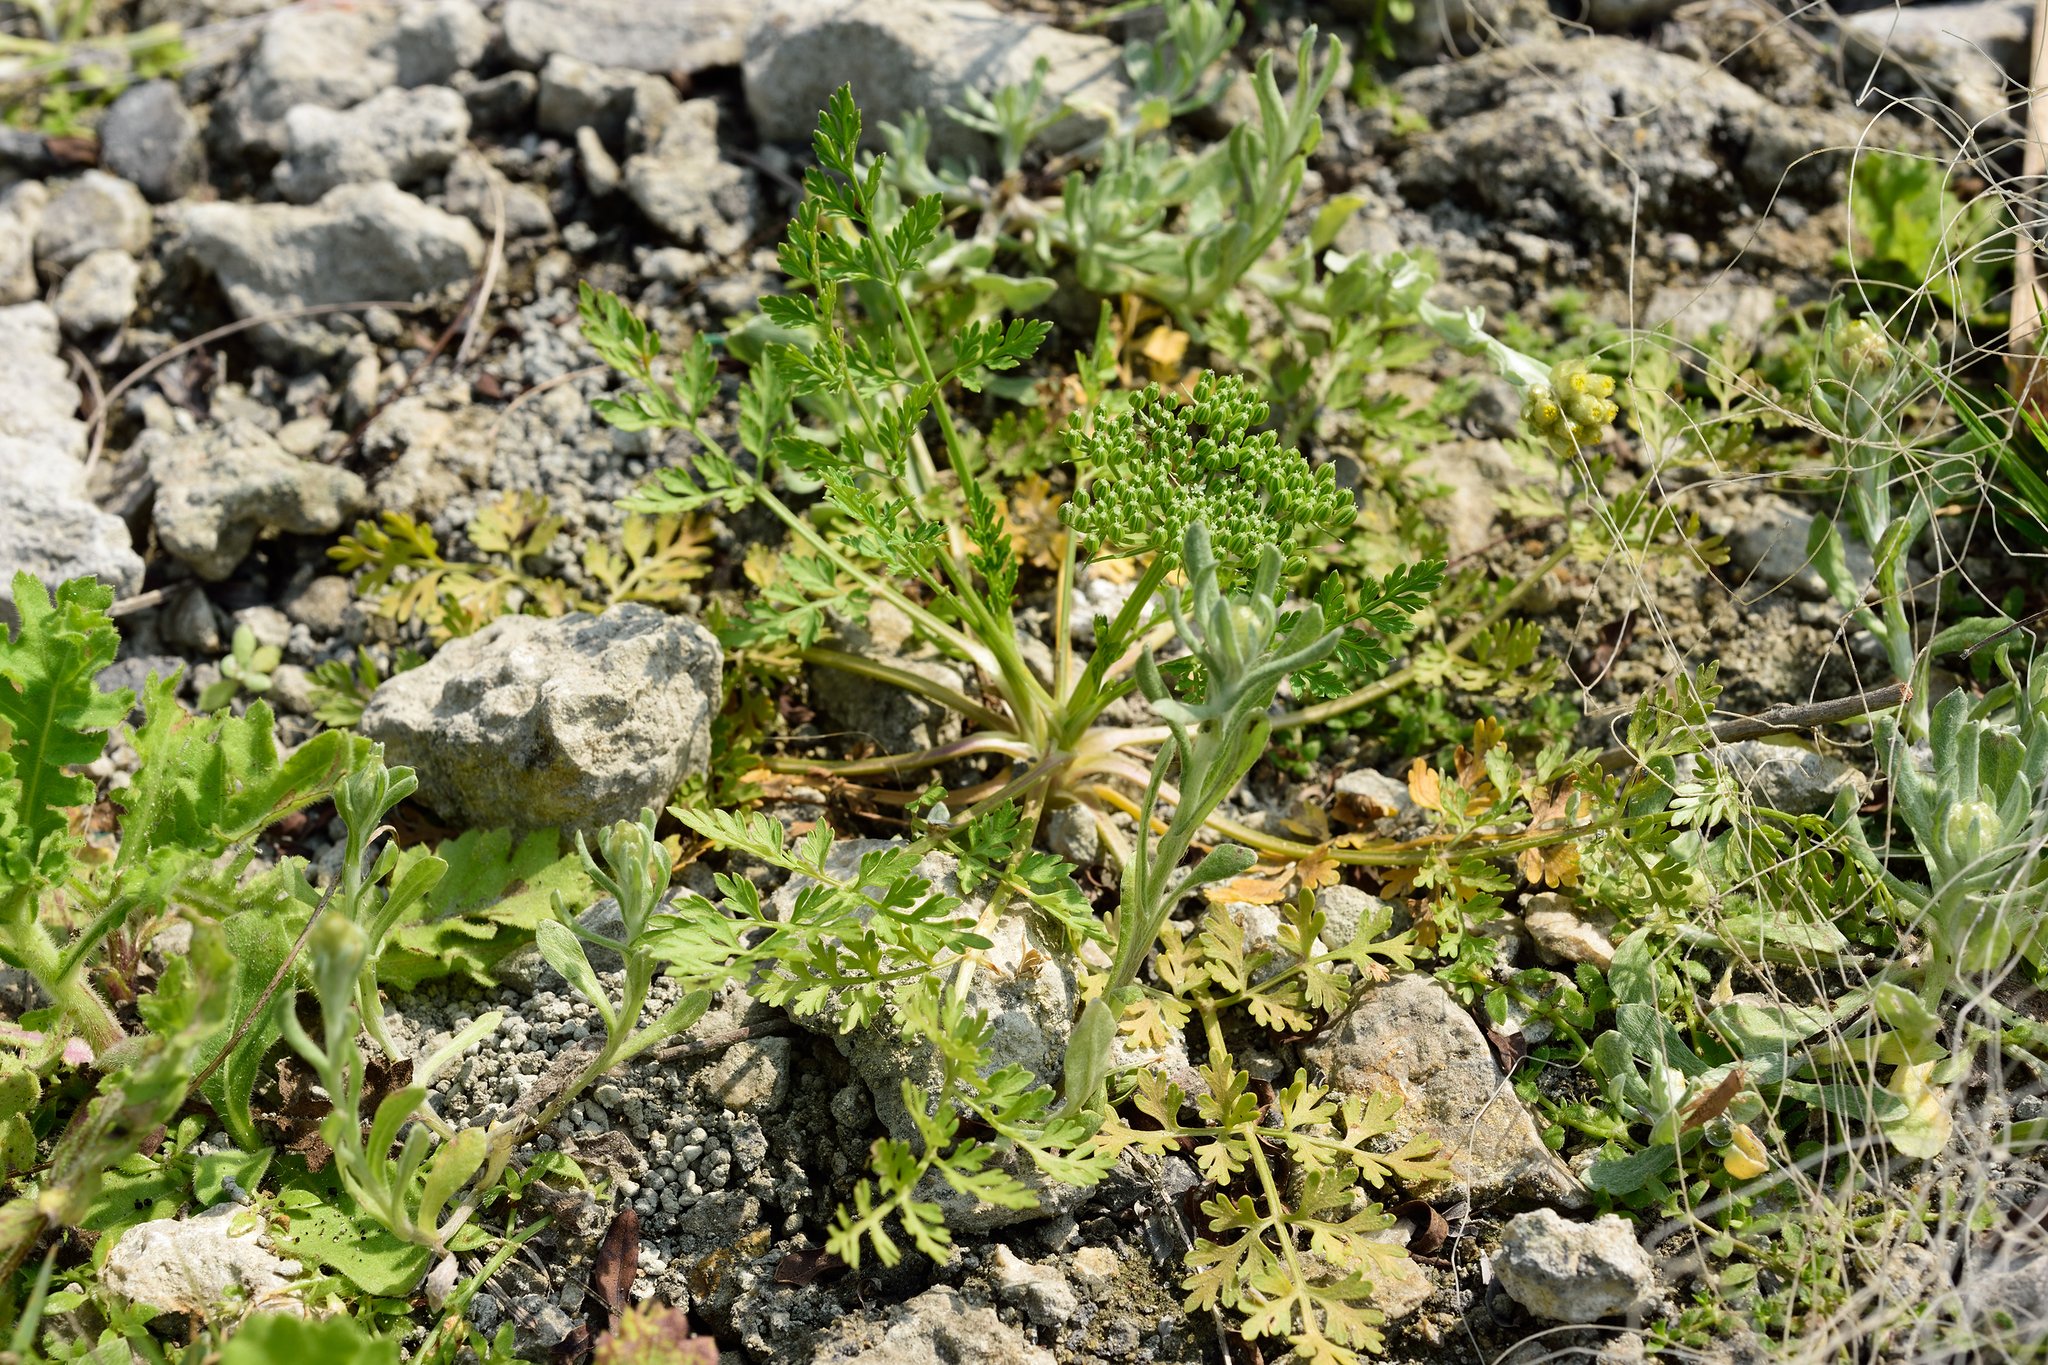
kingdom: Plantae
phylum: Tracheophyta
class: Magnoliopsida
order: Apiales
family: Apiaceae
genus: Cnidium
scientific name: Cnidium monnieri
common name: Monnier's snowparsley
